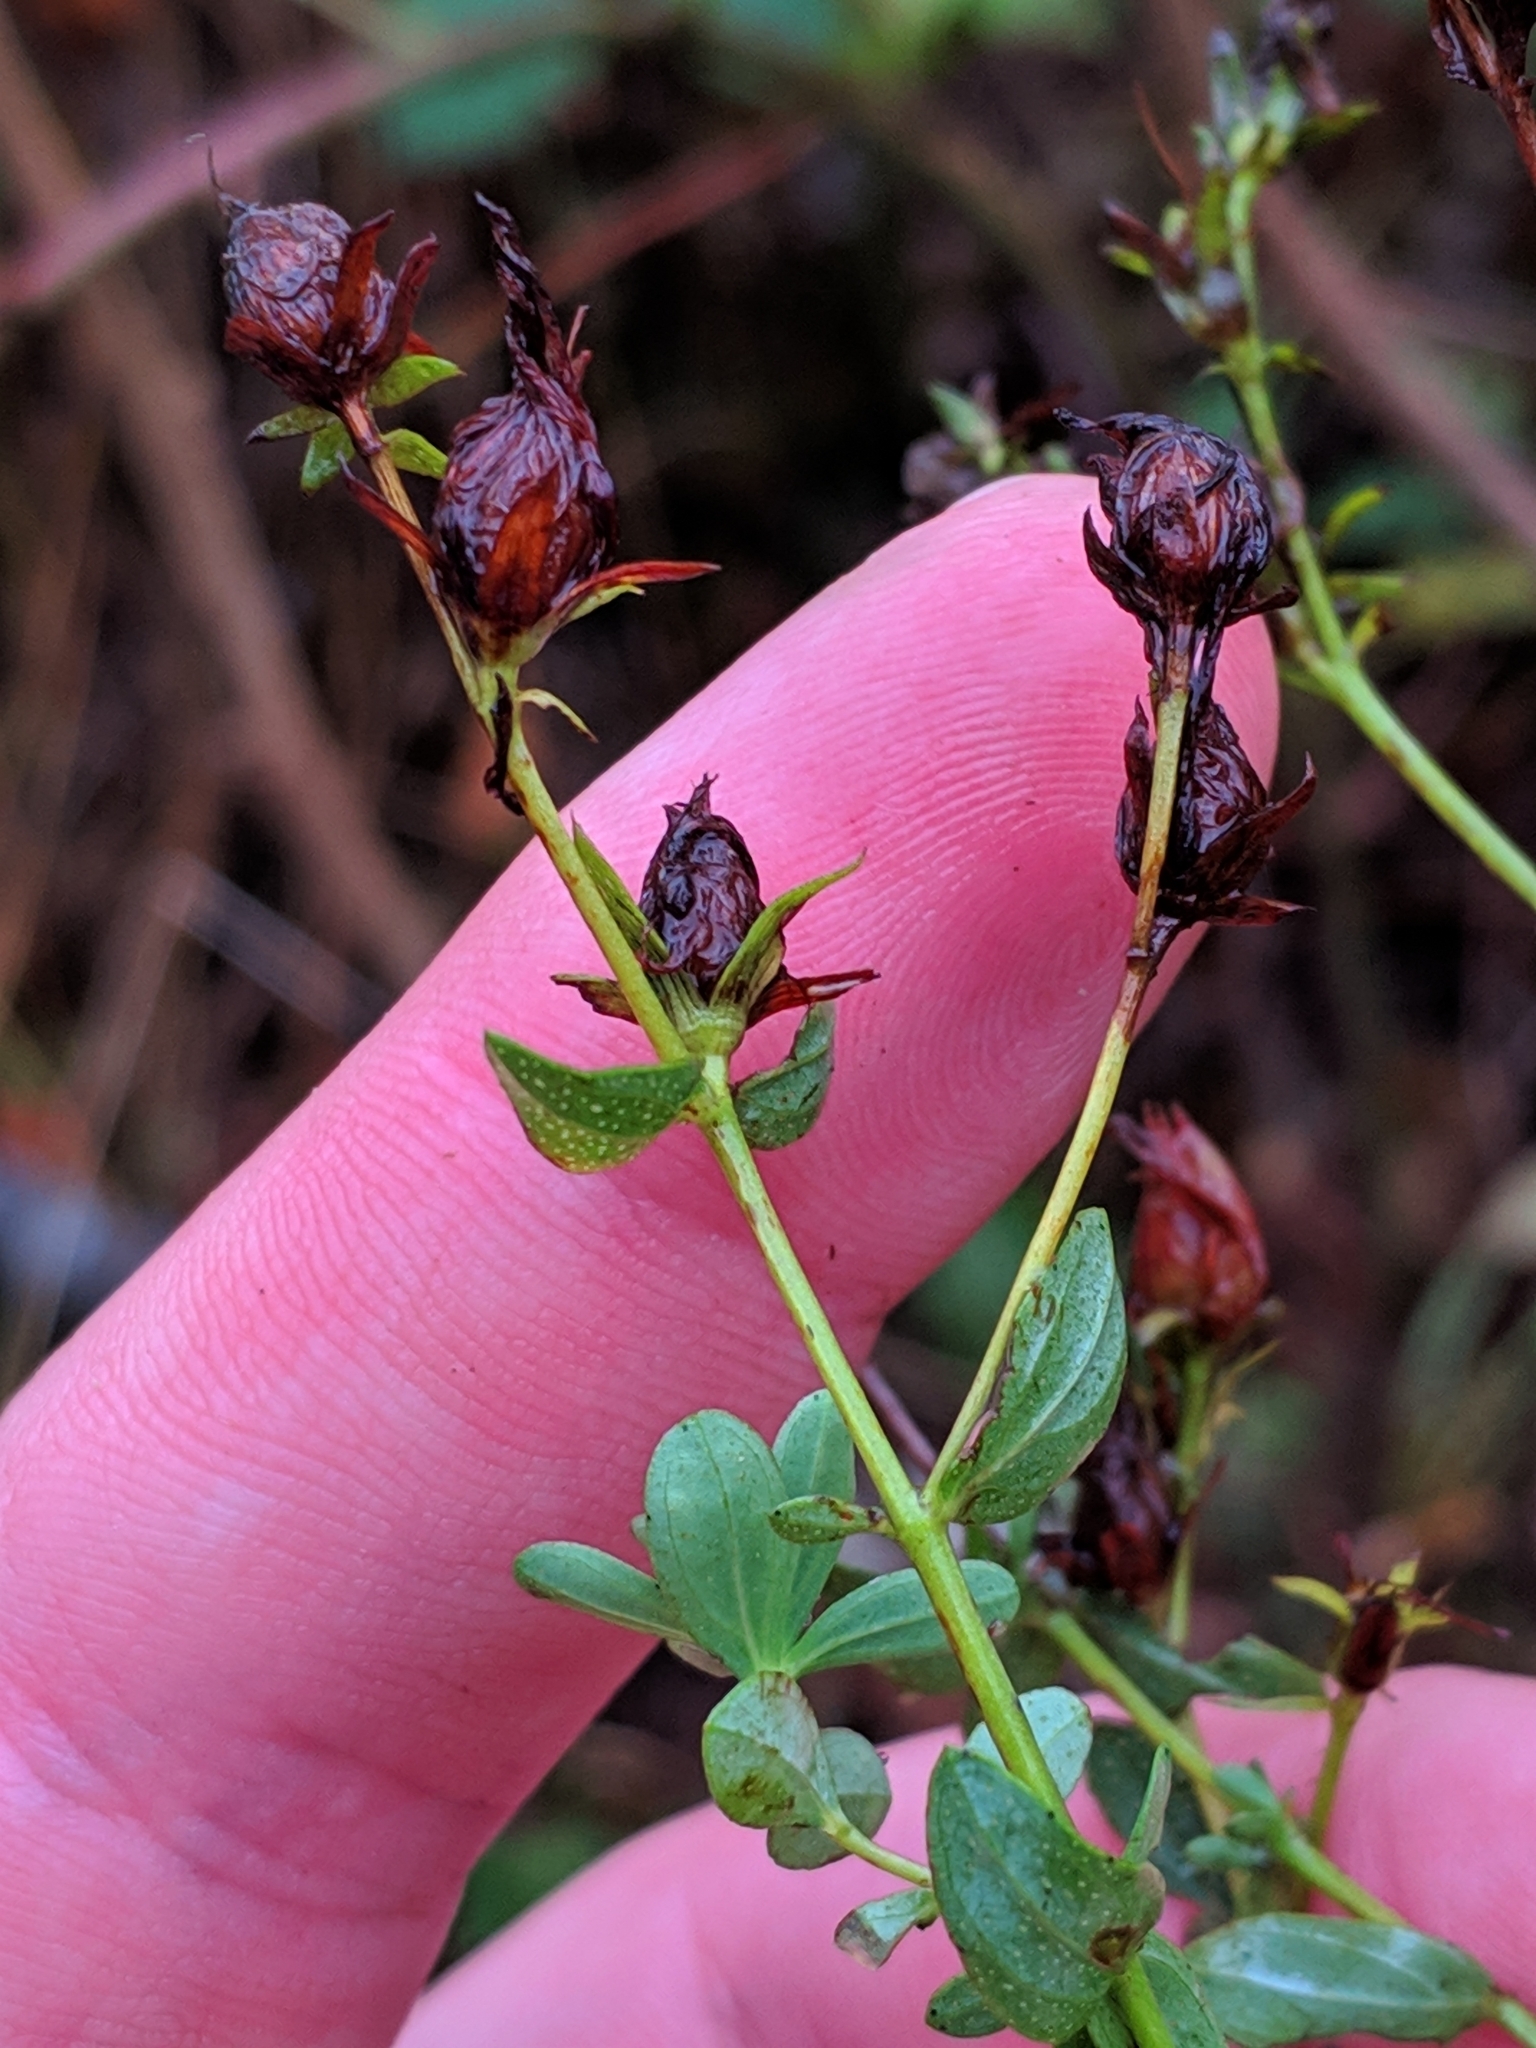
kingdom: Plantae
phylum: Tracheophyta
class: Magnoliopsida
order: Malpighiales
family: Hypericaceae
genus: Hypericum
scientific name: Hypericum perforatum
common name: Common st. johnswort
